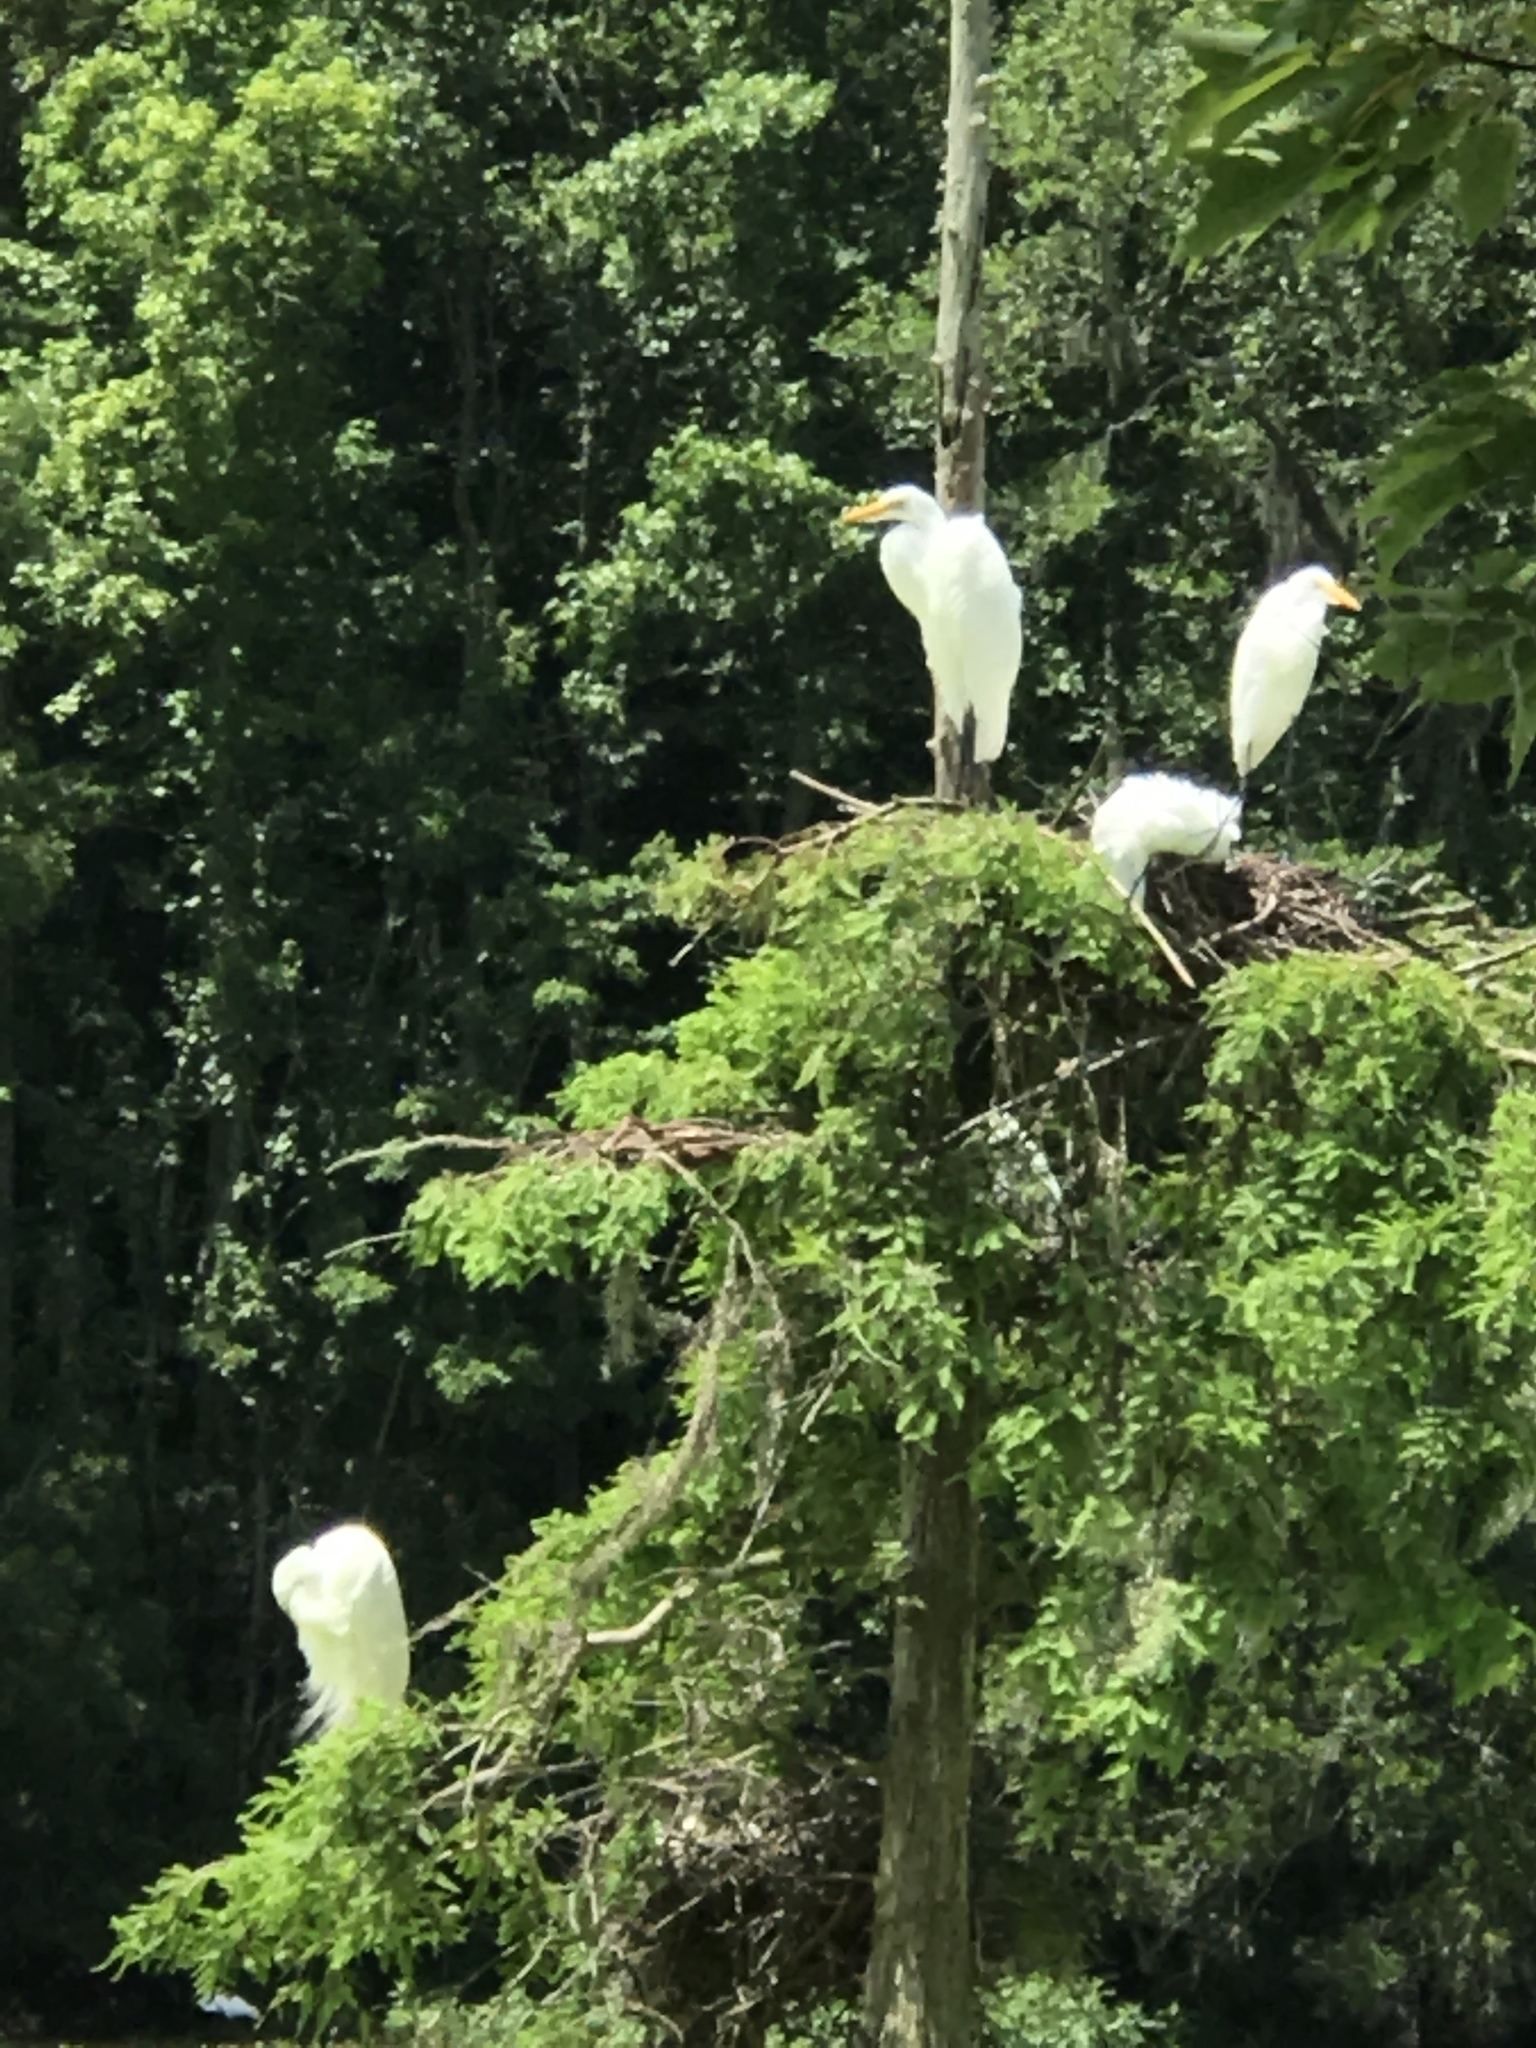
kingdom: Animalia
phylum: Chordata
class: Aves
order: Pelecaniformes
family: Ardeidae
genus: Ardea
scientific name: Ardea alba
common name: Great egret
